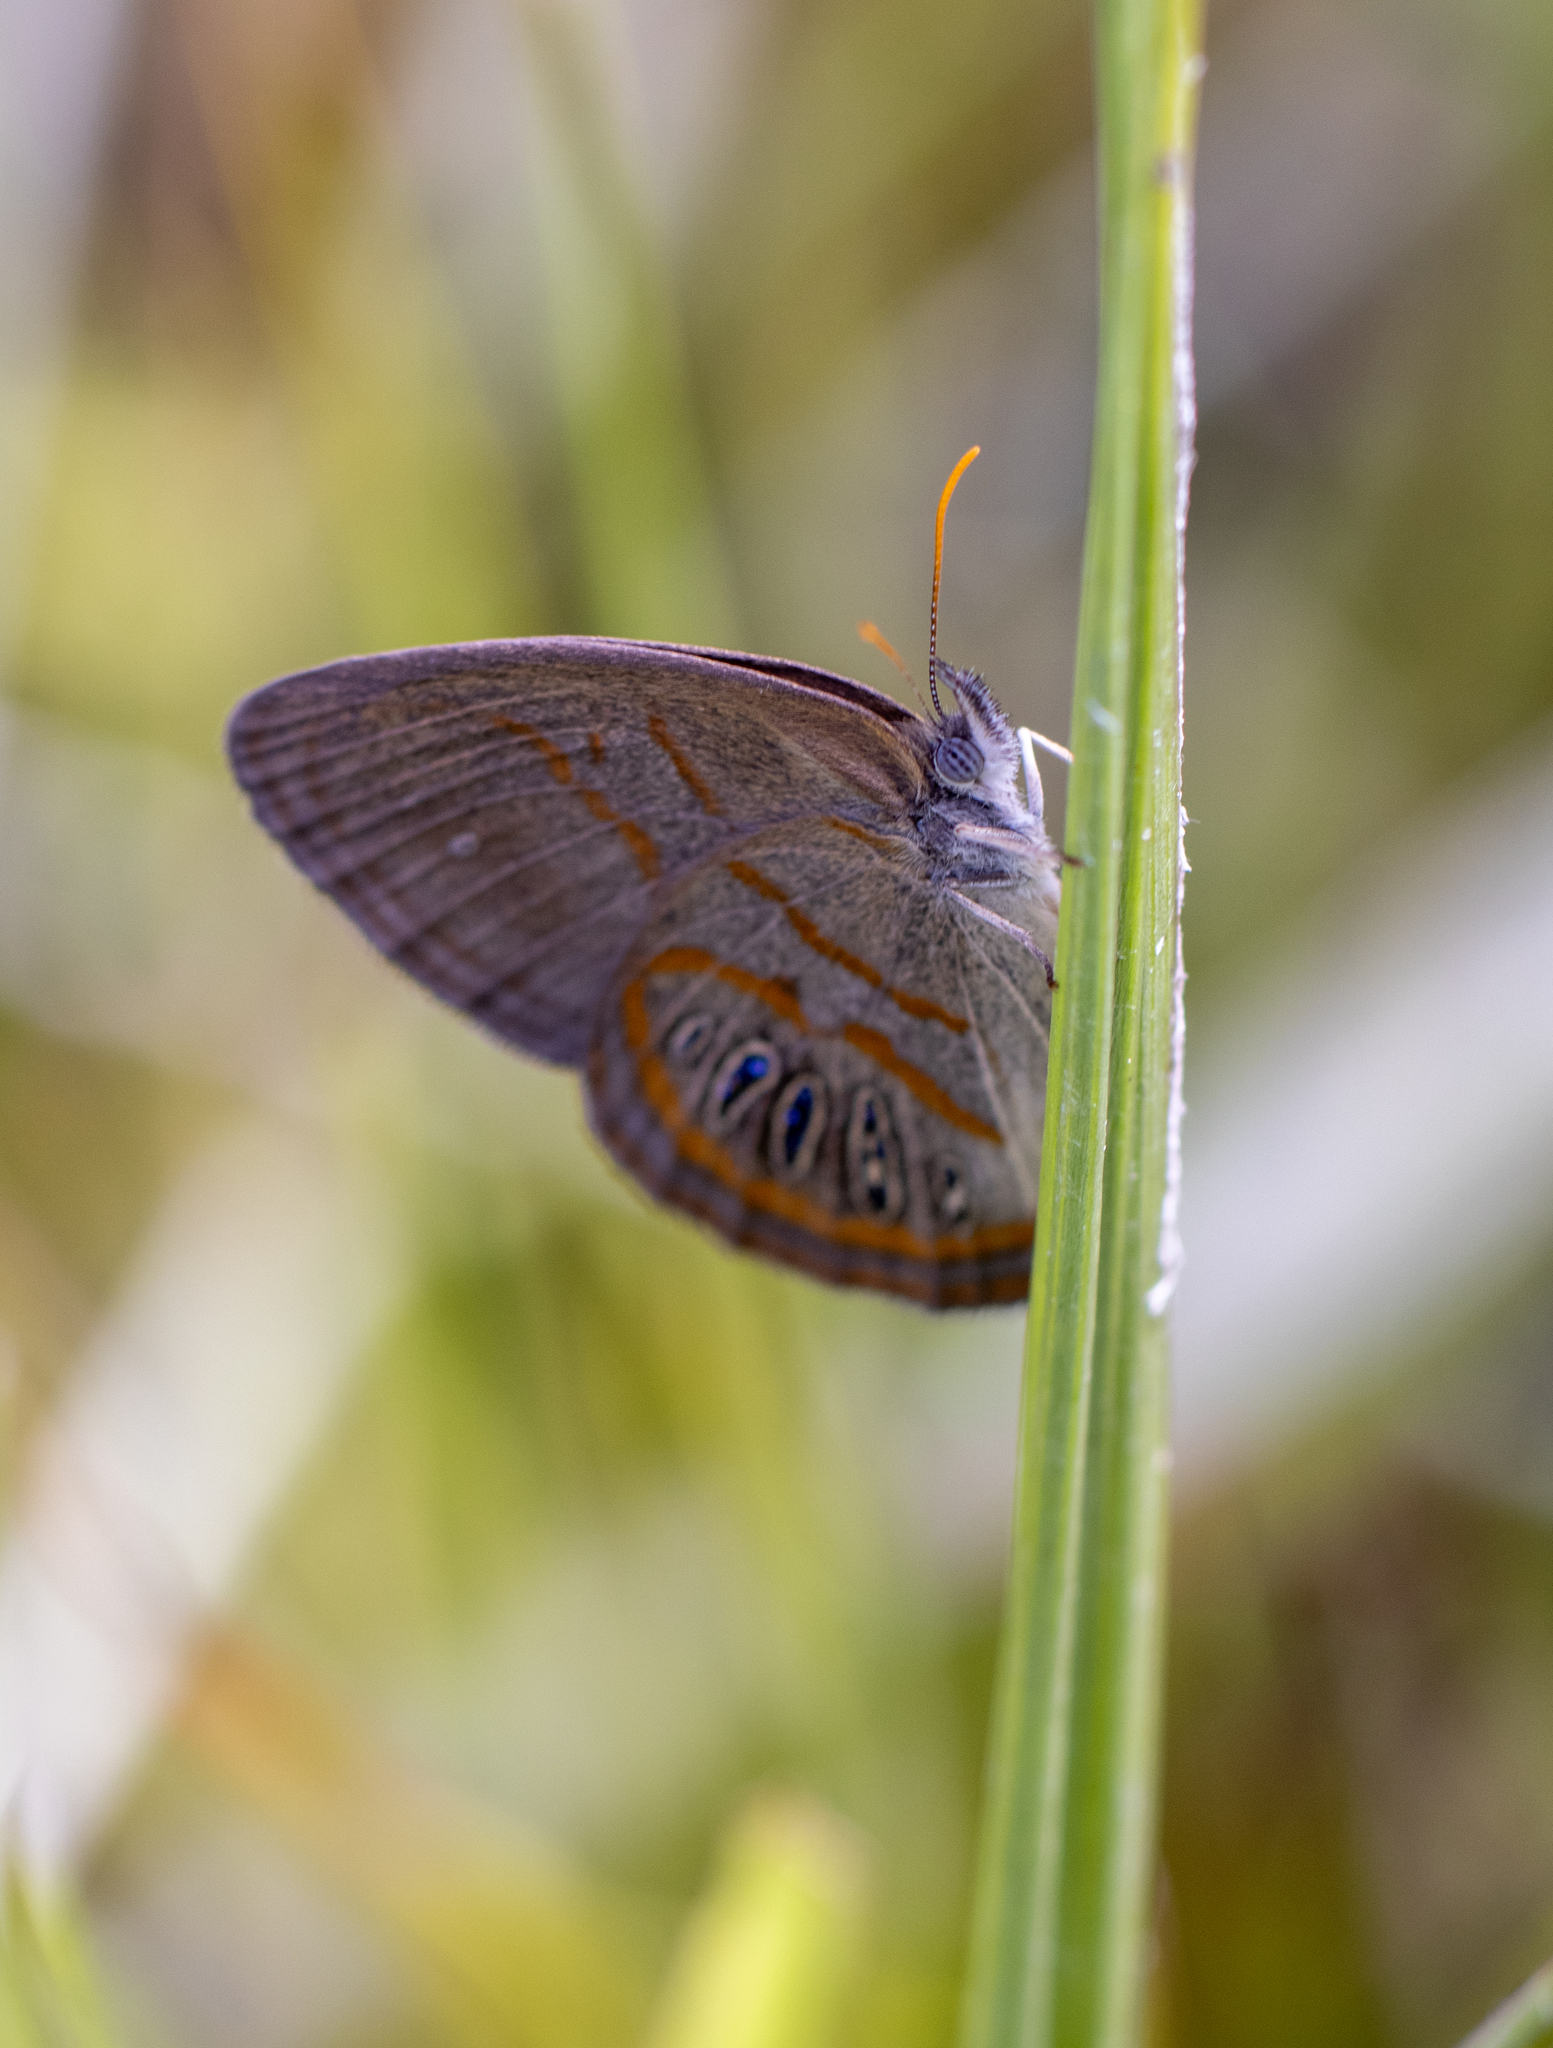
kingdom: Animalia
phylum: Arthropoda
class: Insecta
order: Lepidoptera
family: Nymphalidae
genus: Euptychia
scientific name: Euptychia phocion
